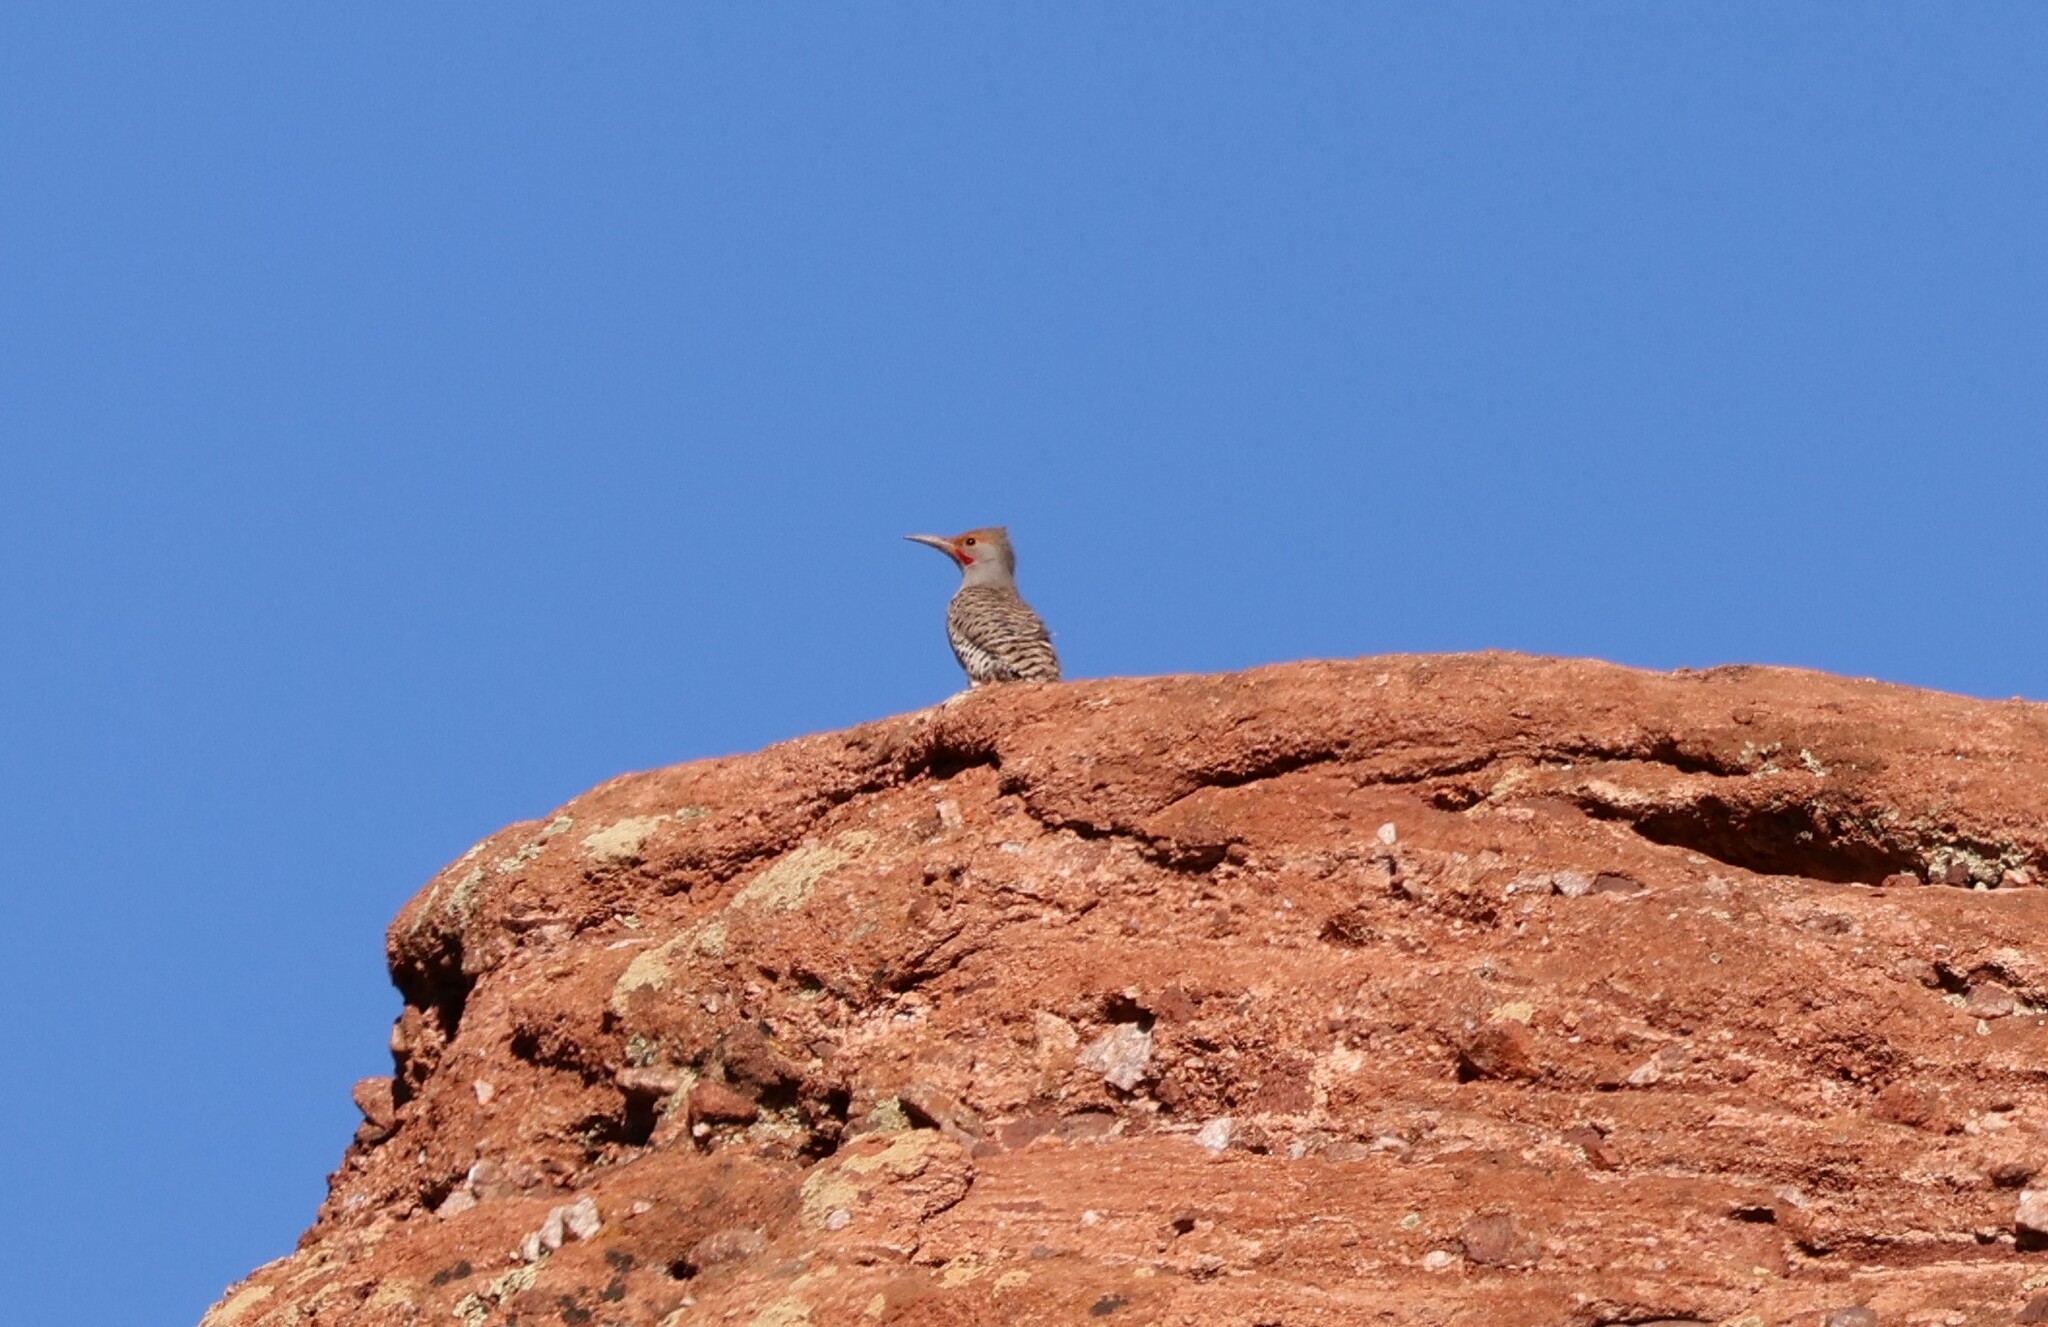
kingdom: Animalia
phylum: Chordata
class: Aves
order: Piciformes
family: Picidae
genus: Colaptes
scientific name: Colaptes auratus
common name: Northern flicker
